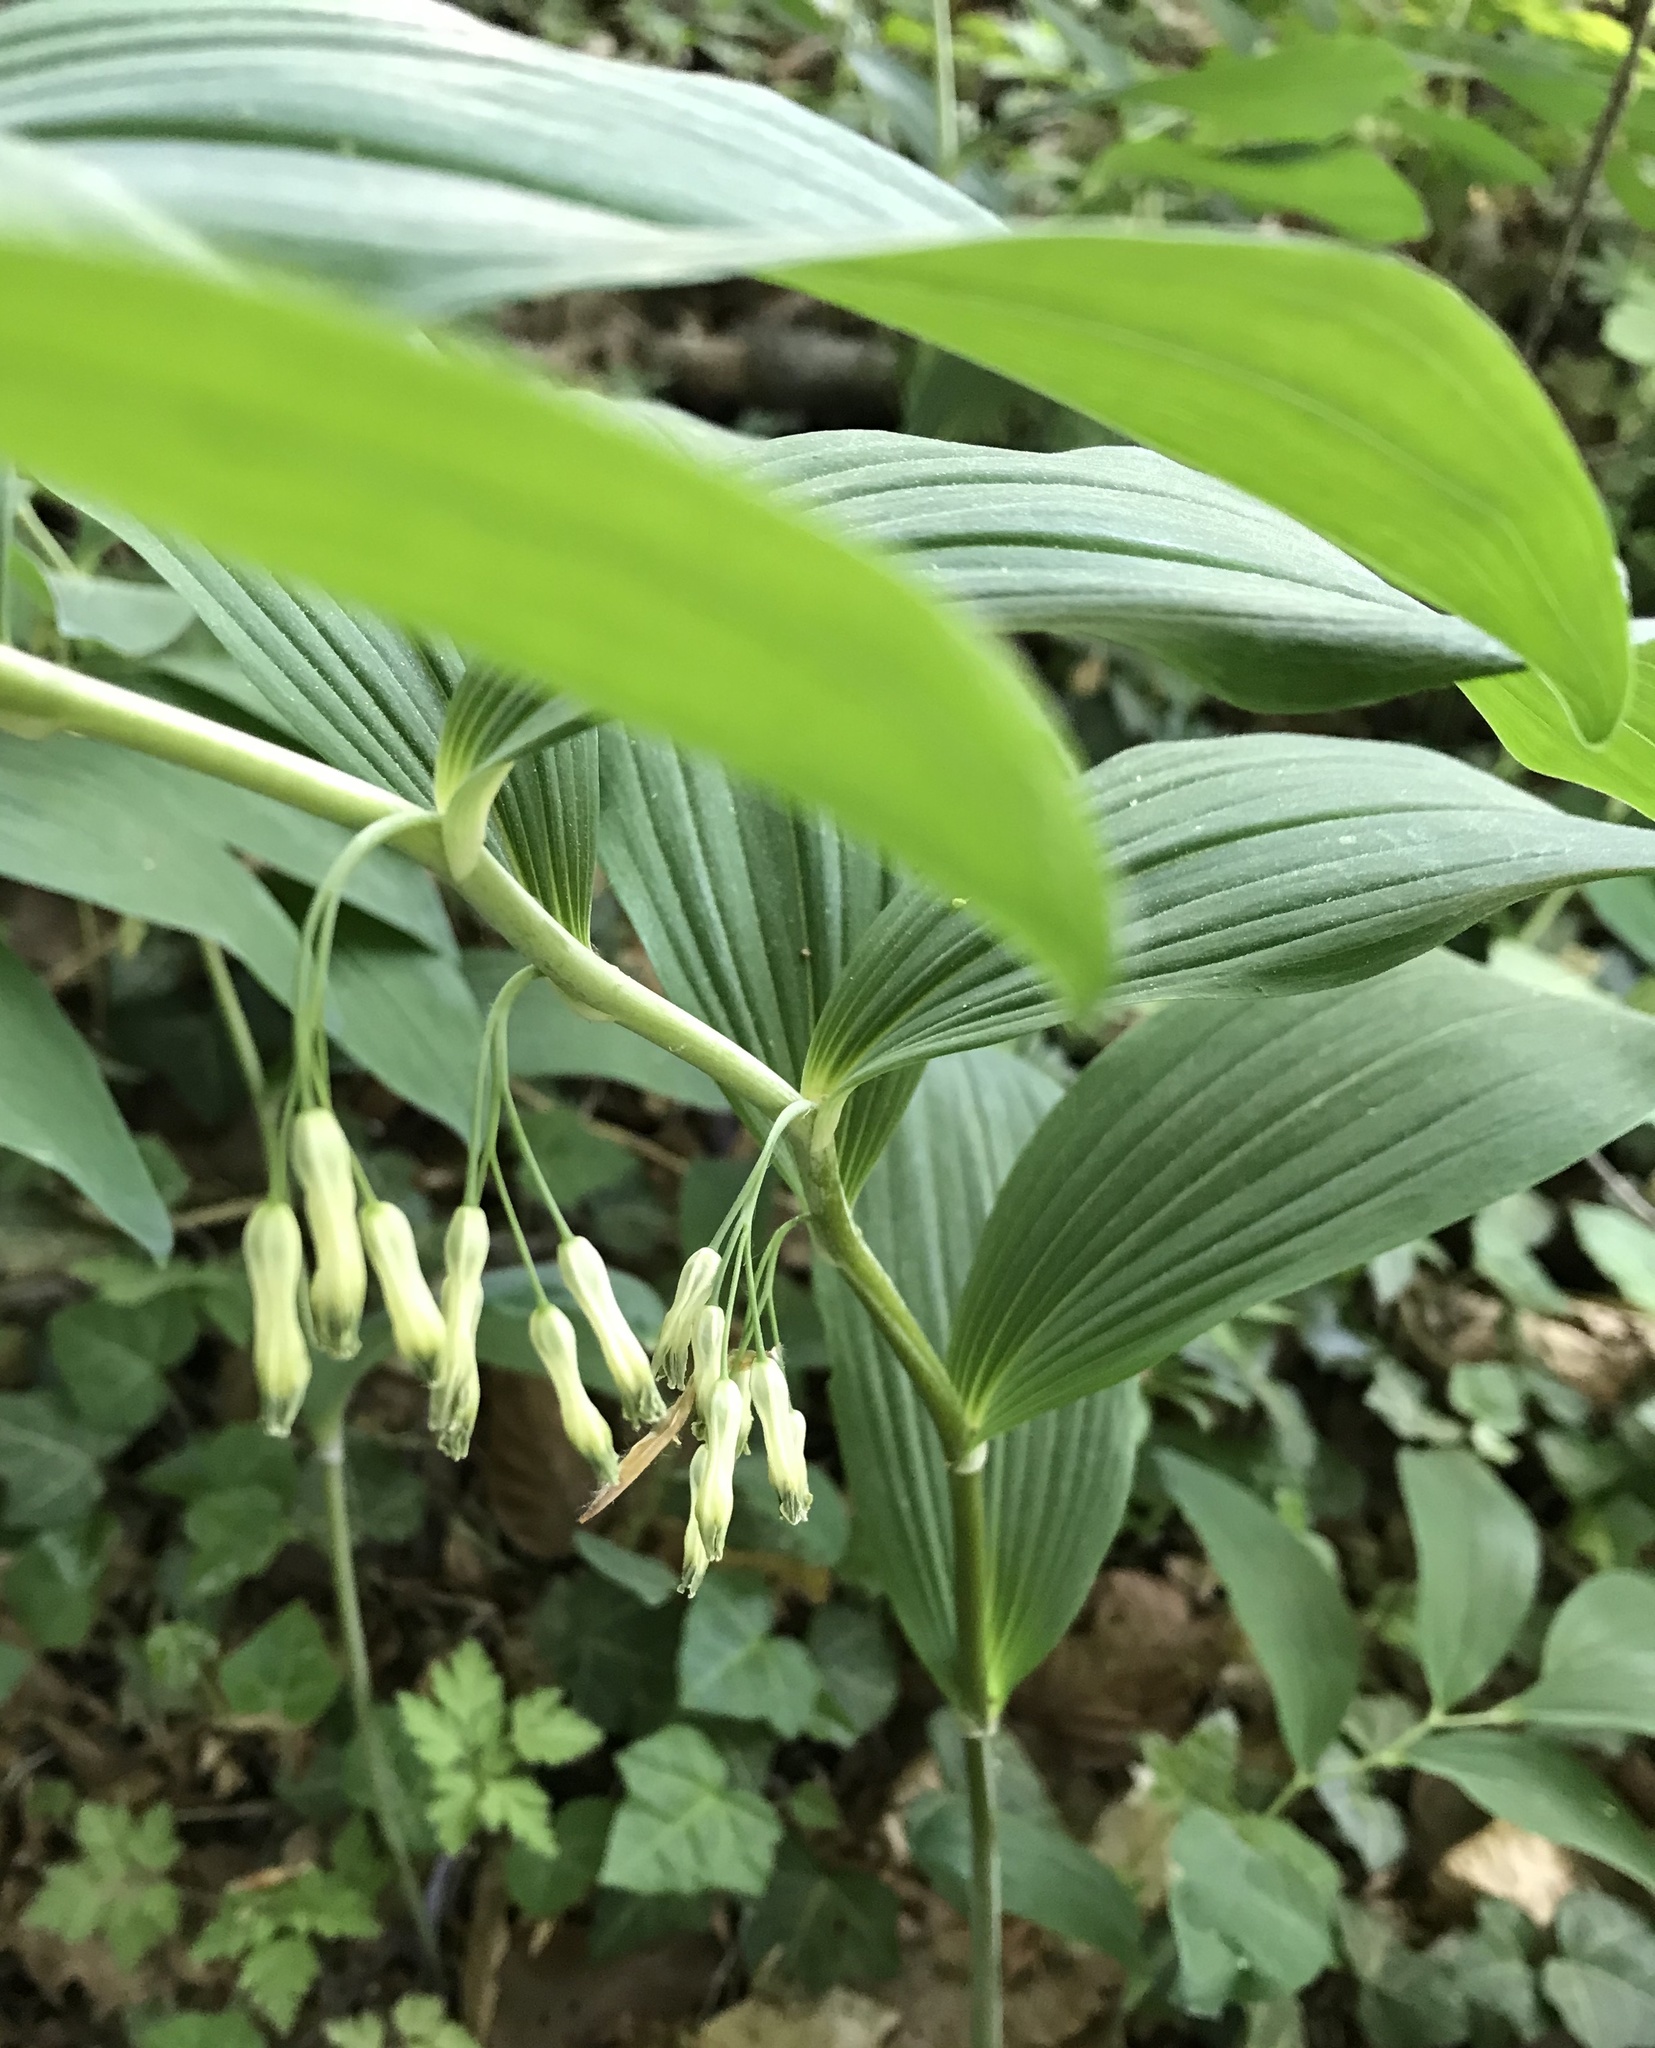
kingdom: Plantae
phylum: Tracheophyta
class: Liliopsida
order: Asparagales
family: Asparagaceae
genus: Polygonatum
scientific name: Polygonatum multiflorum
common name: Solomon's-seal
